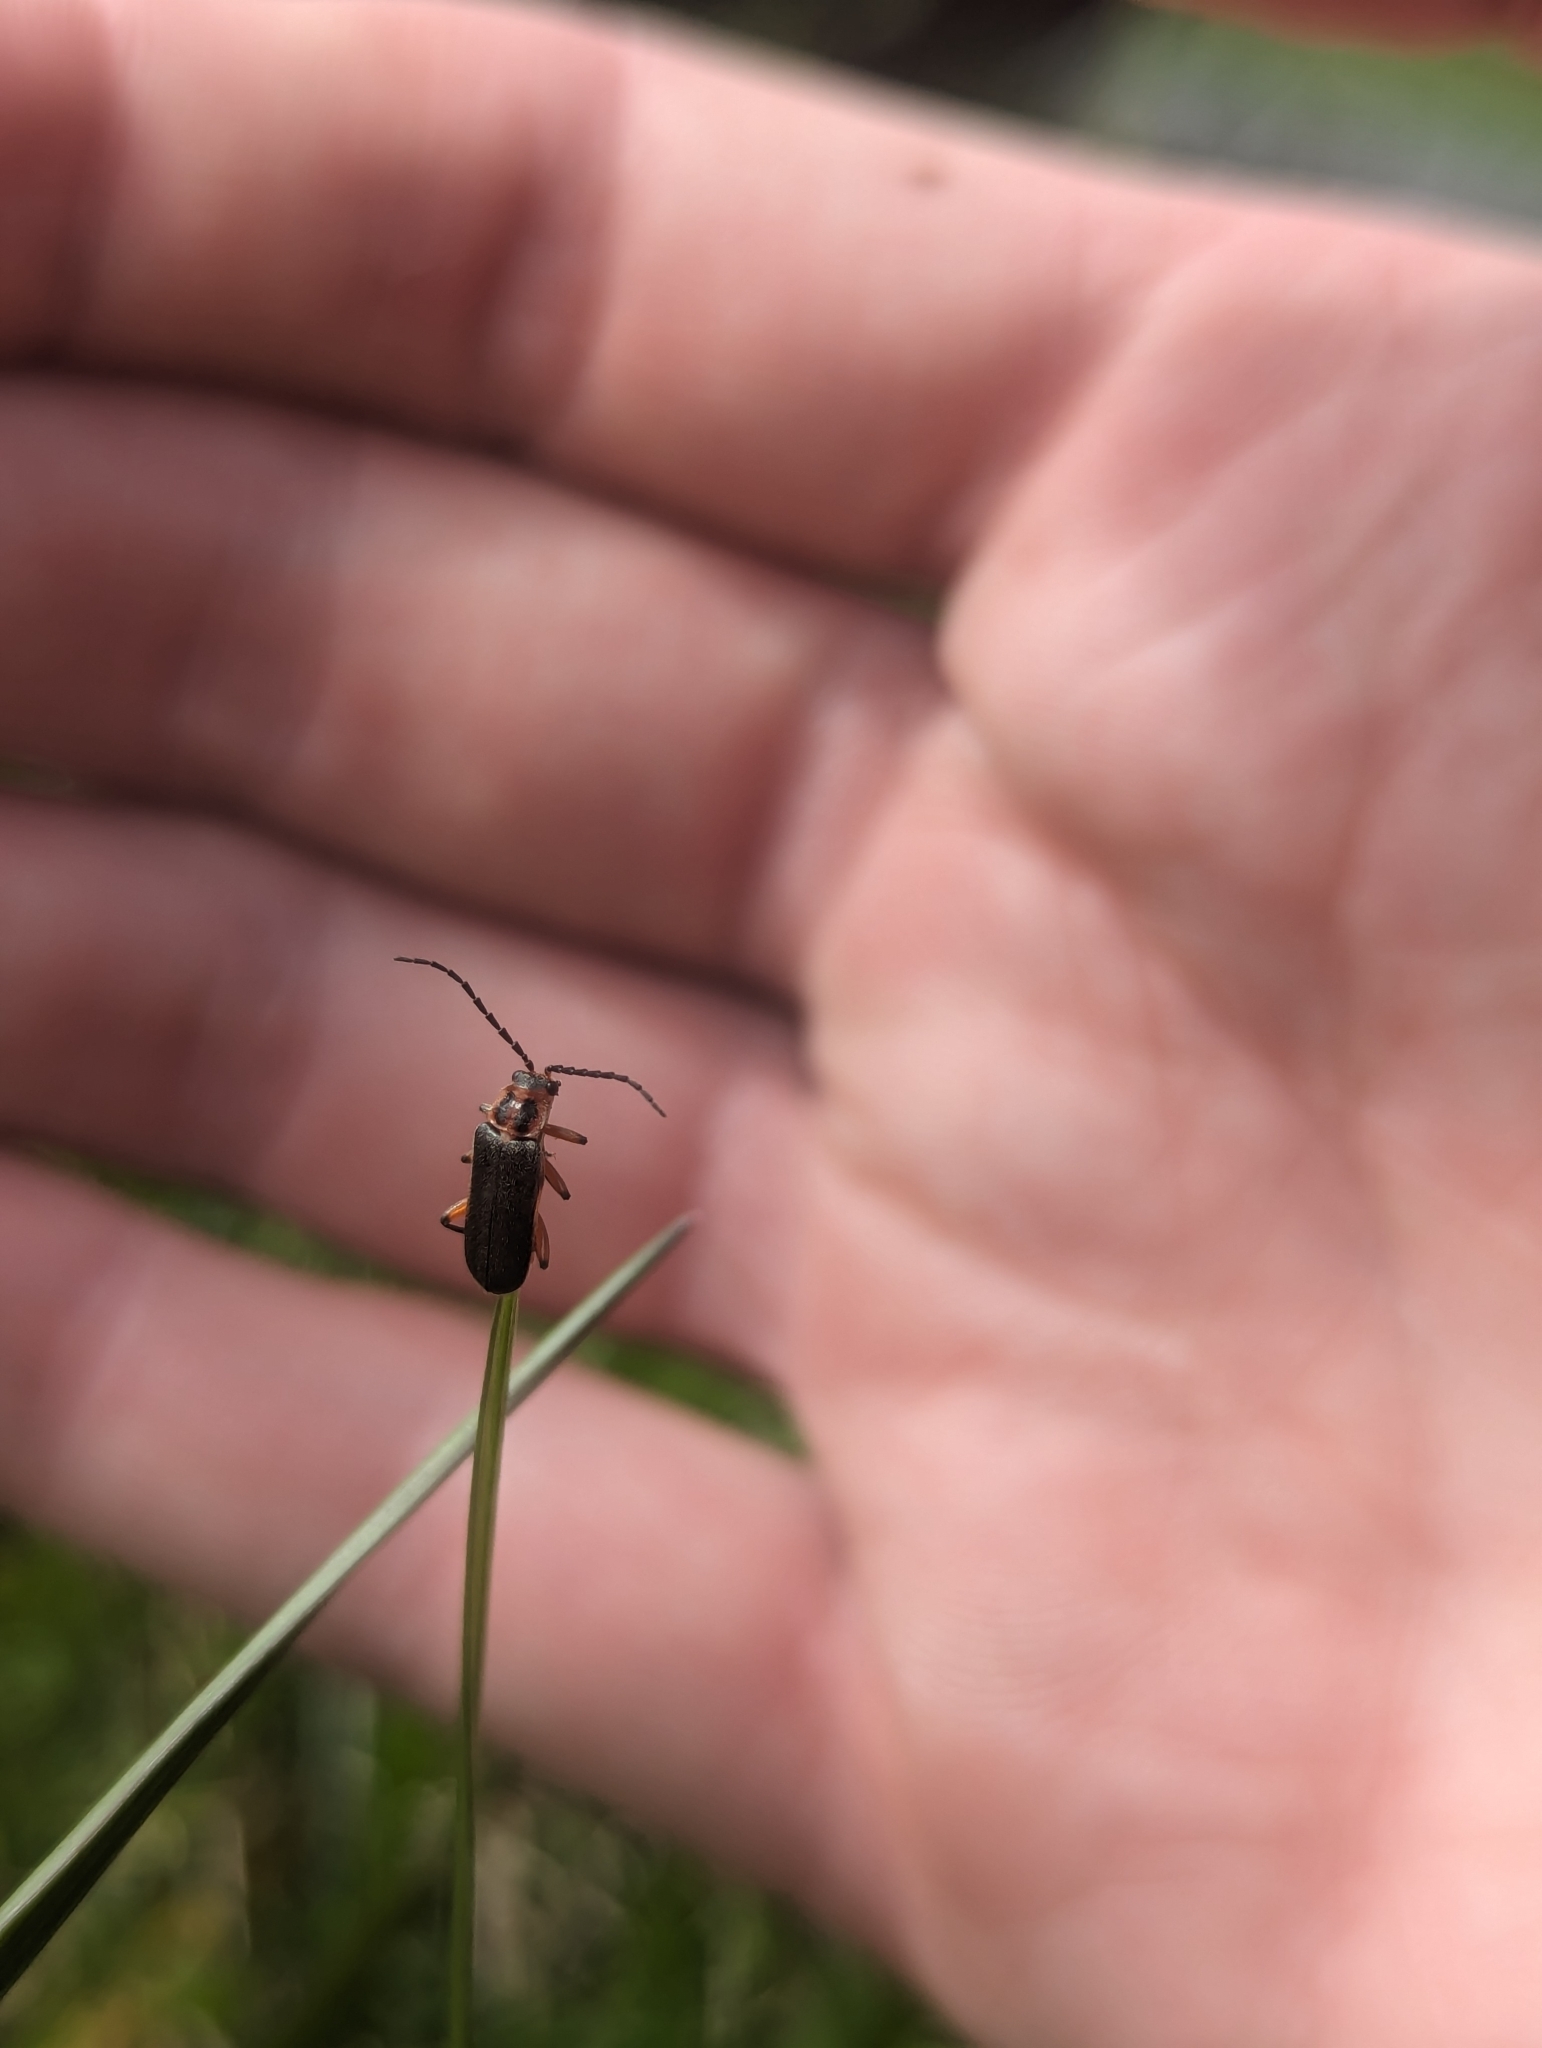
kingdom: Animalia
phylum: Arthropoda
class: Insecta
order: Coleoptera
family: Cantharidae
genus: Atalantycha
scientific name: Atalantycha bilineata
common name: Two-lined leatherwing
